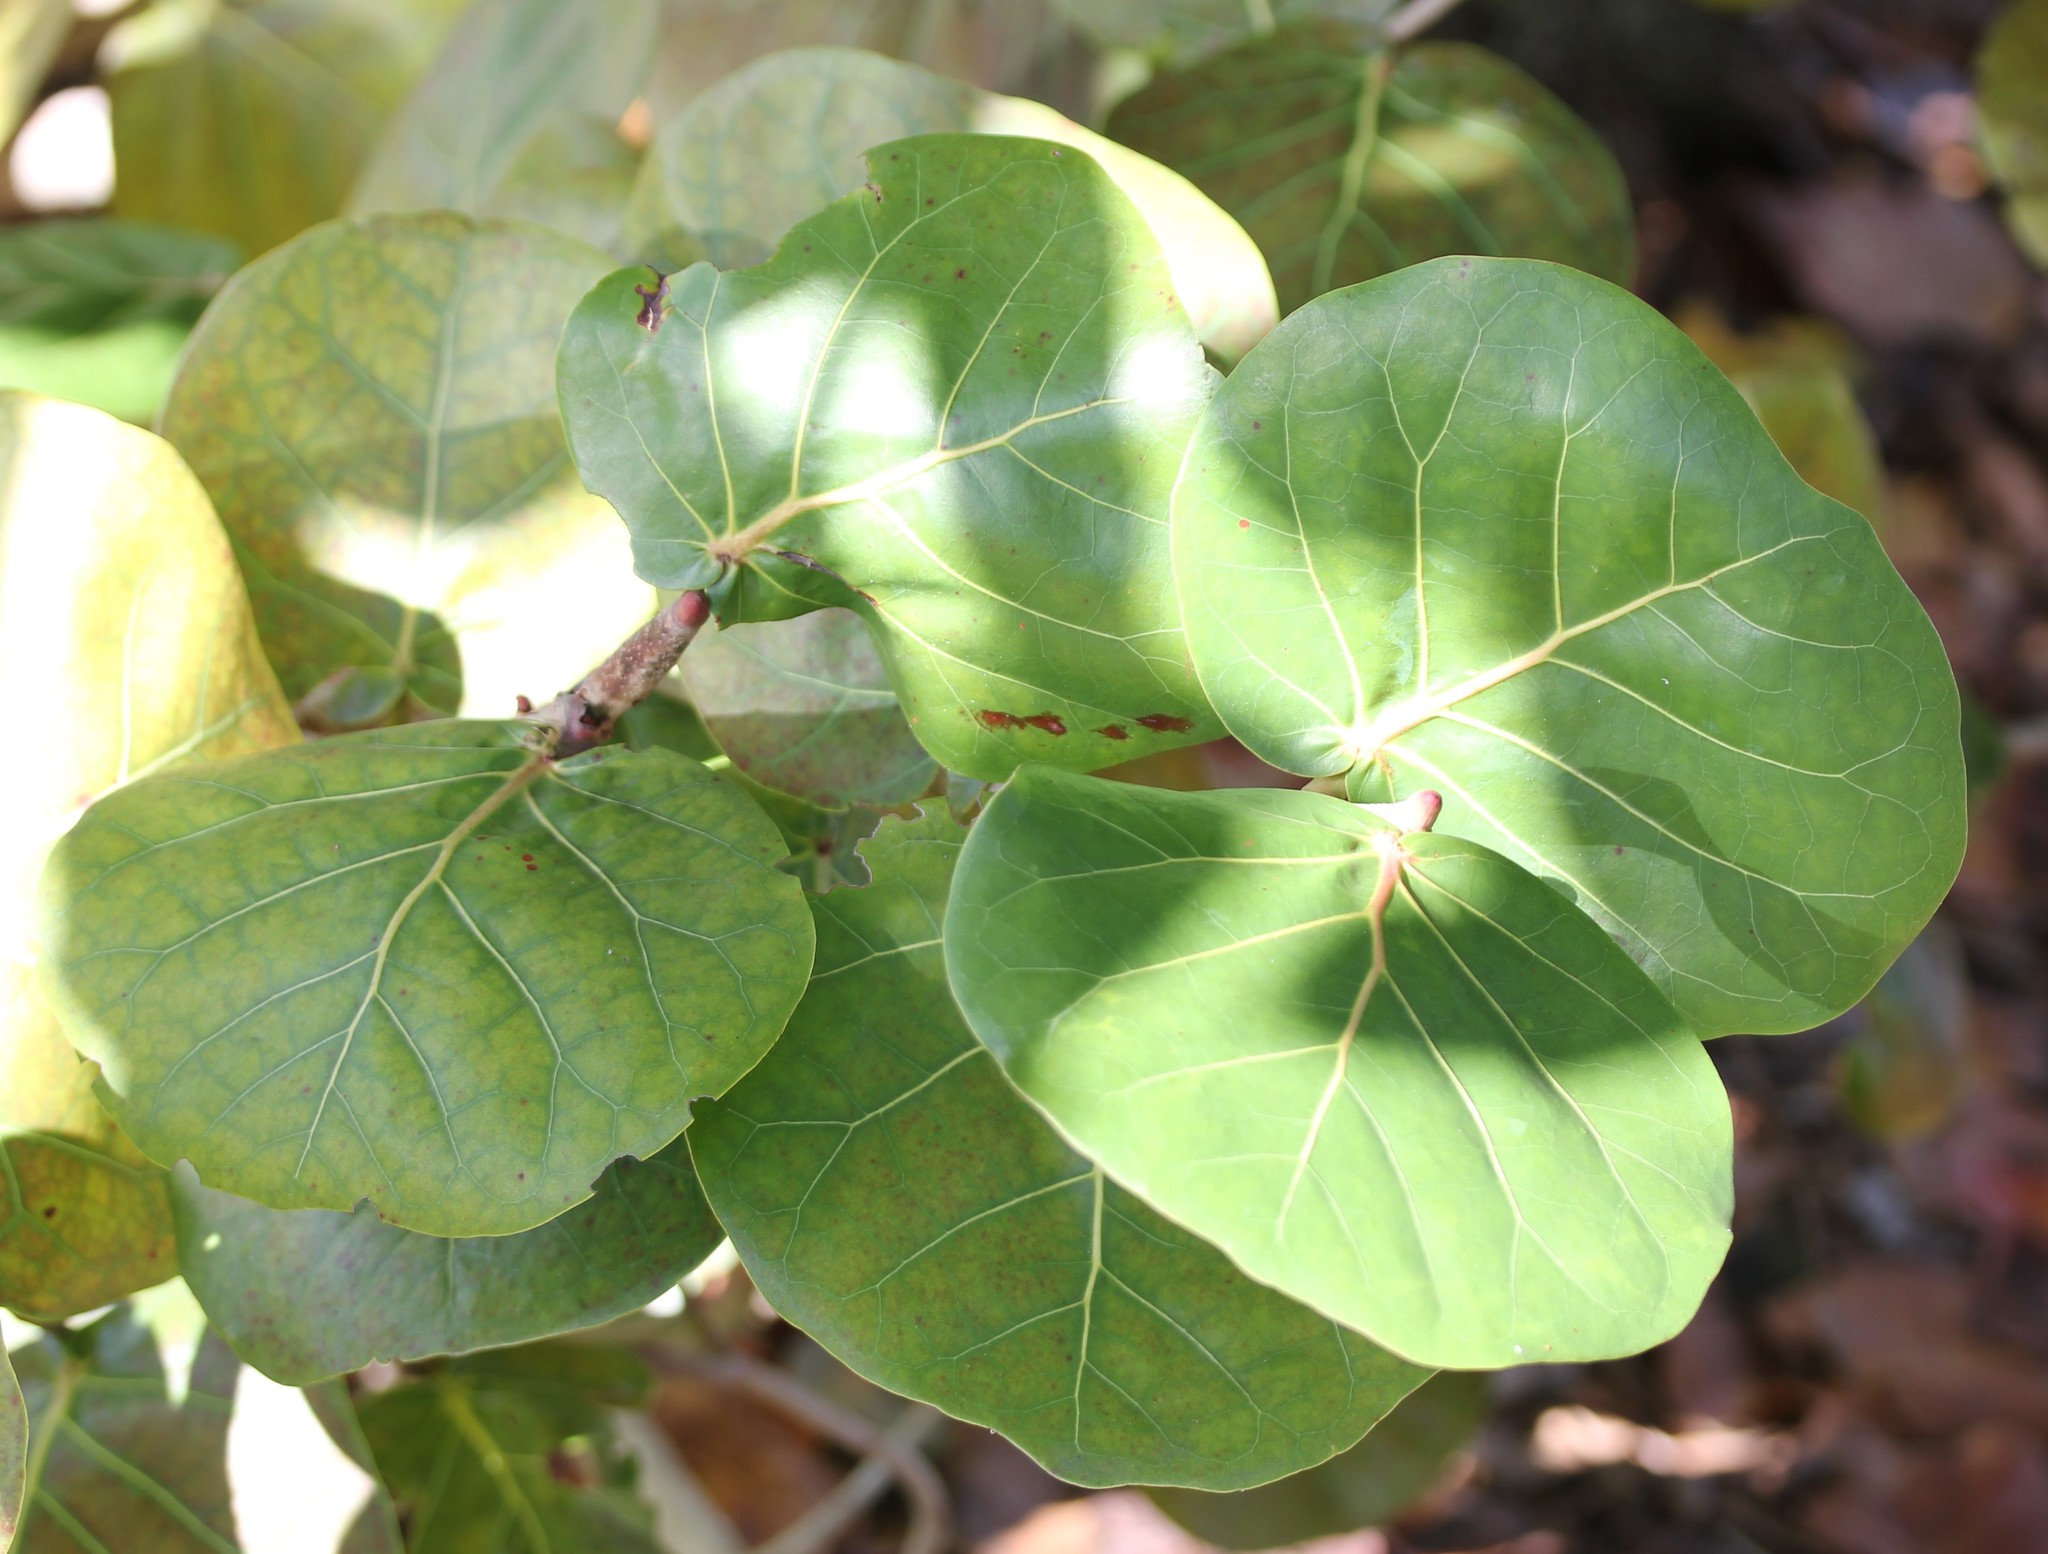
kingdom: Plantae
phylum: Tracheophyta
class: Magnoliopsida
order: Caryophyllales
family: Polygonaceae
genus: Coccoloba
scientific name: Coccoloba uvifera
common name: Seagrape
